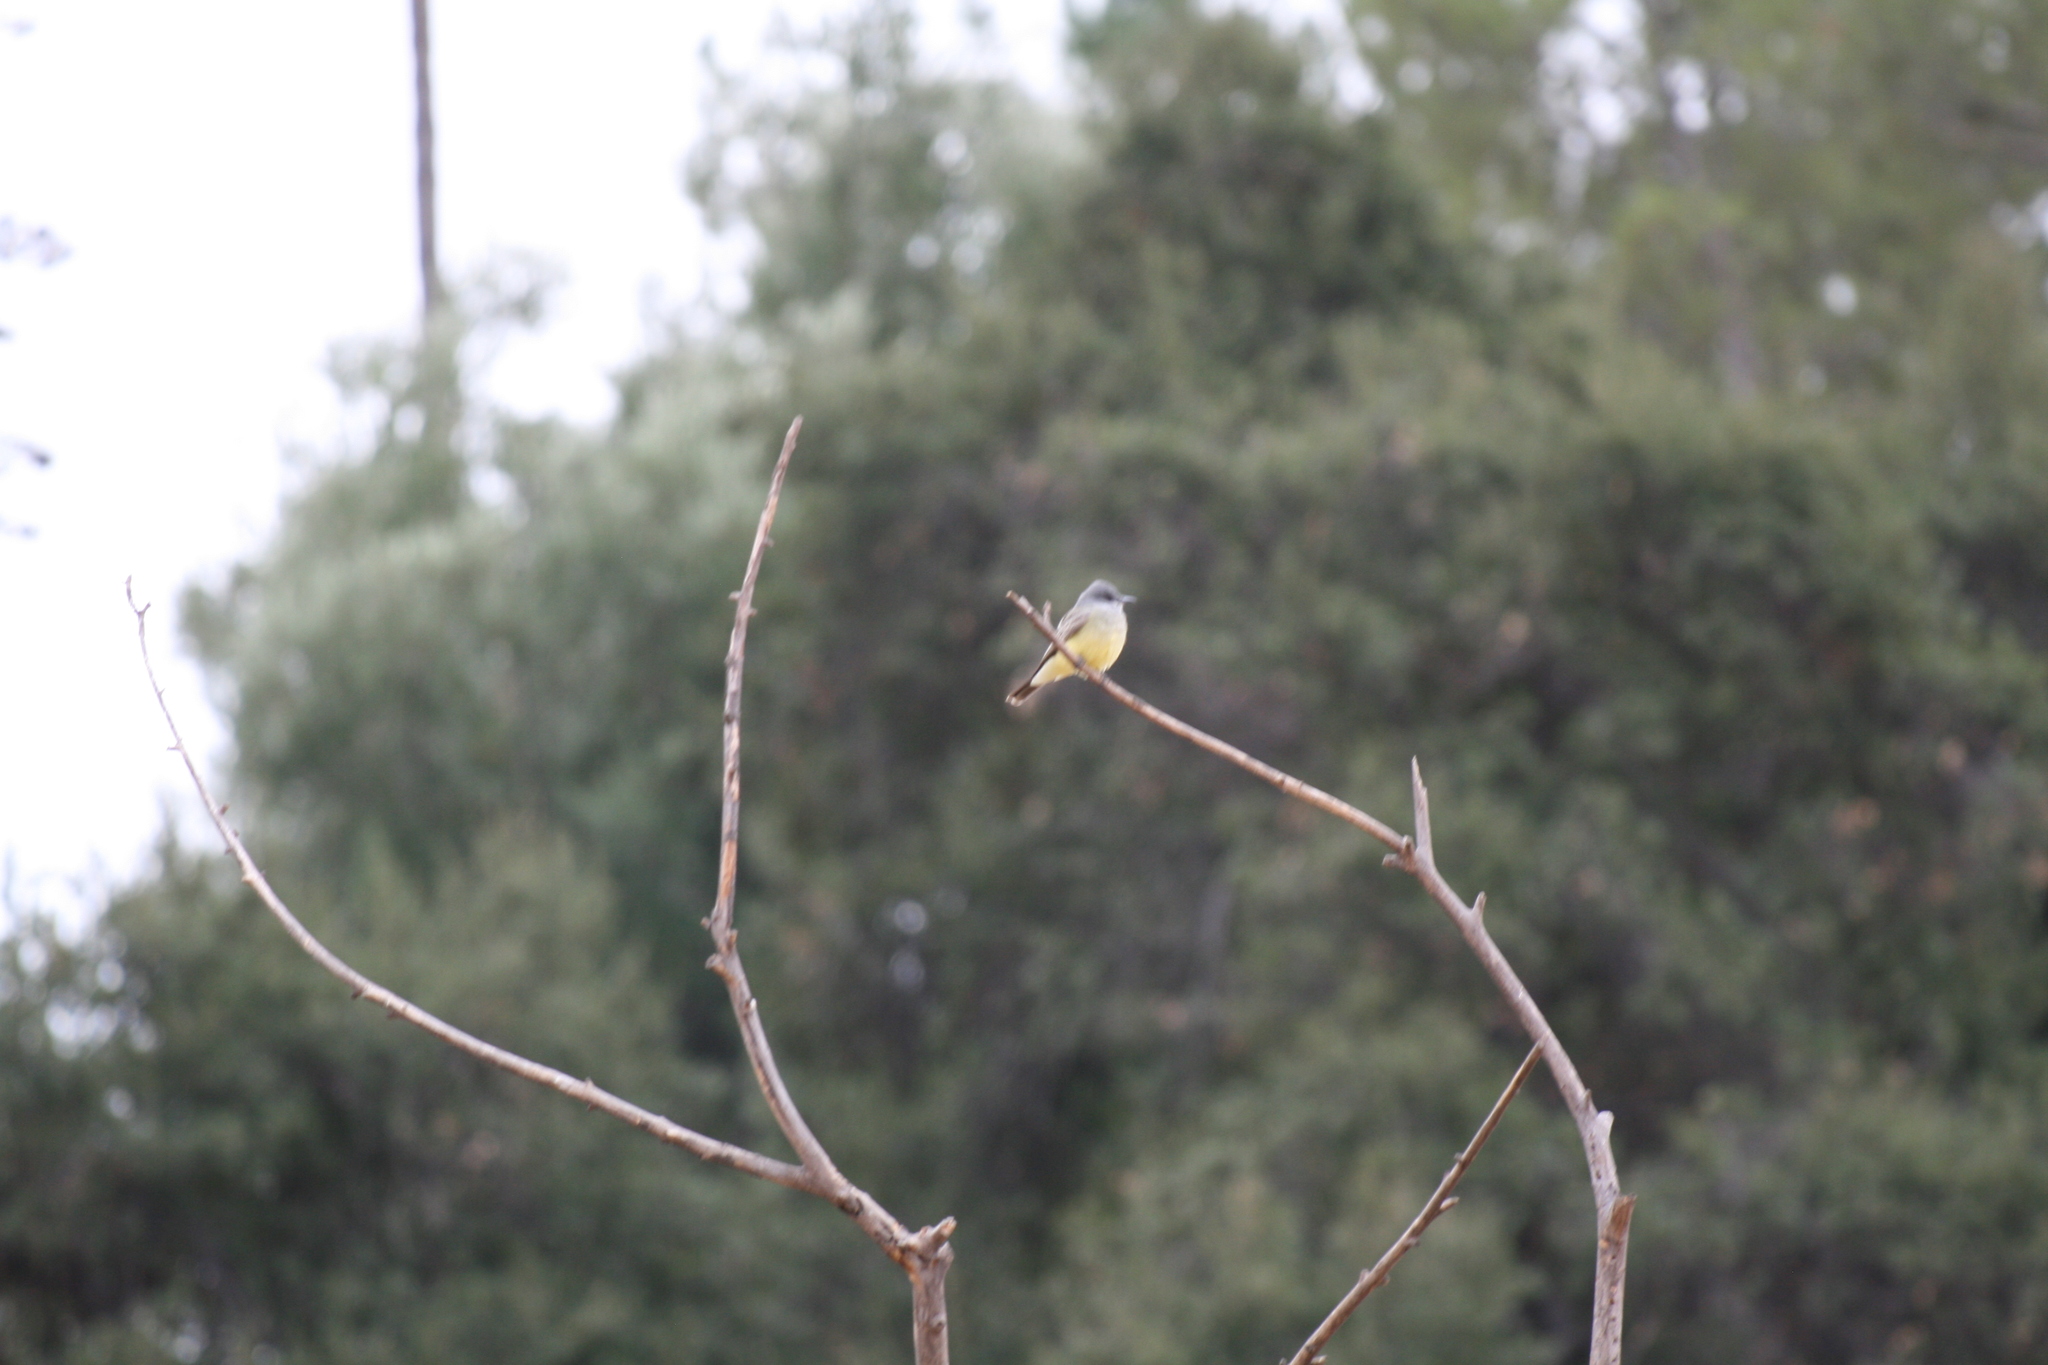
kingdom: Animalia
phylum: Chordata
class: Aves
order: Passeriformes
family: Tyrannidae
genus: Tyrannus
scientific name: Tyrannus vociferans
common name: Cassin's kingbird
